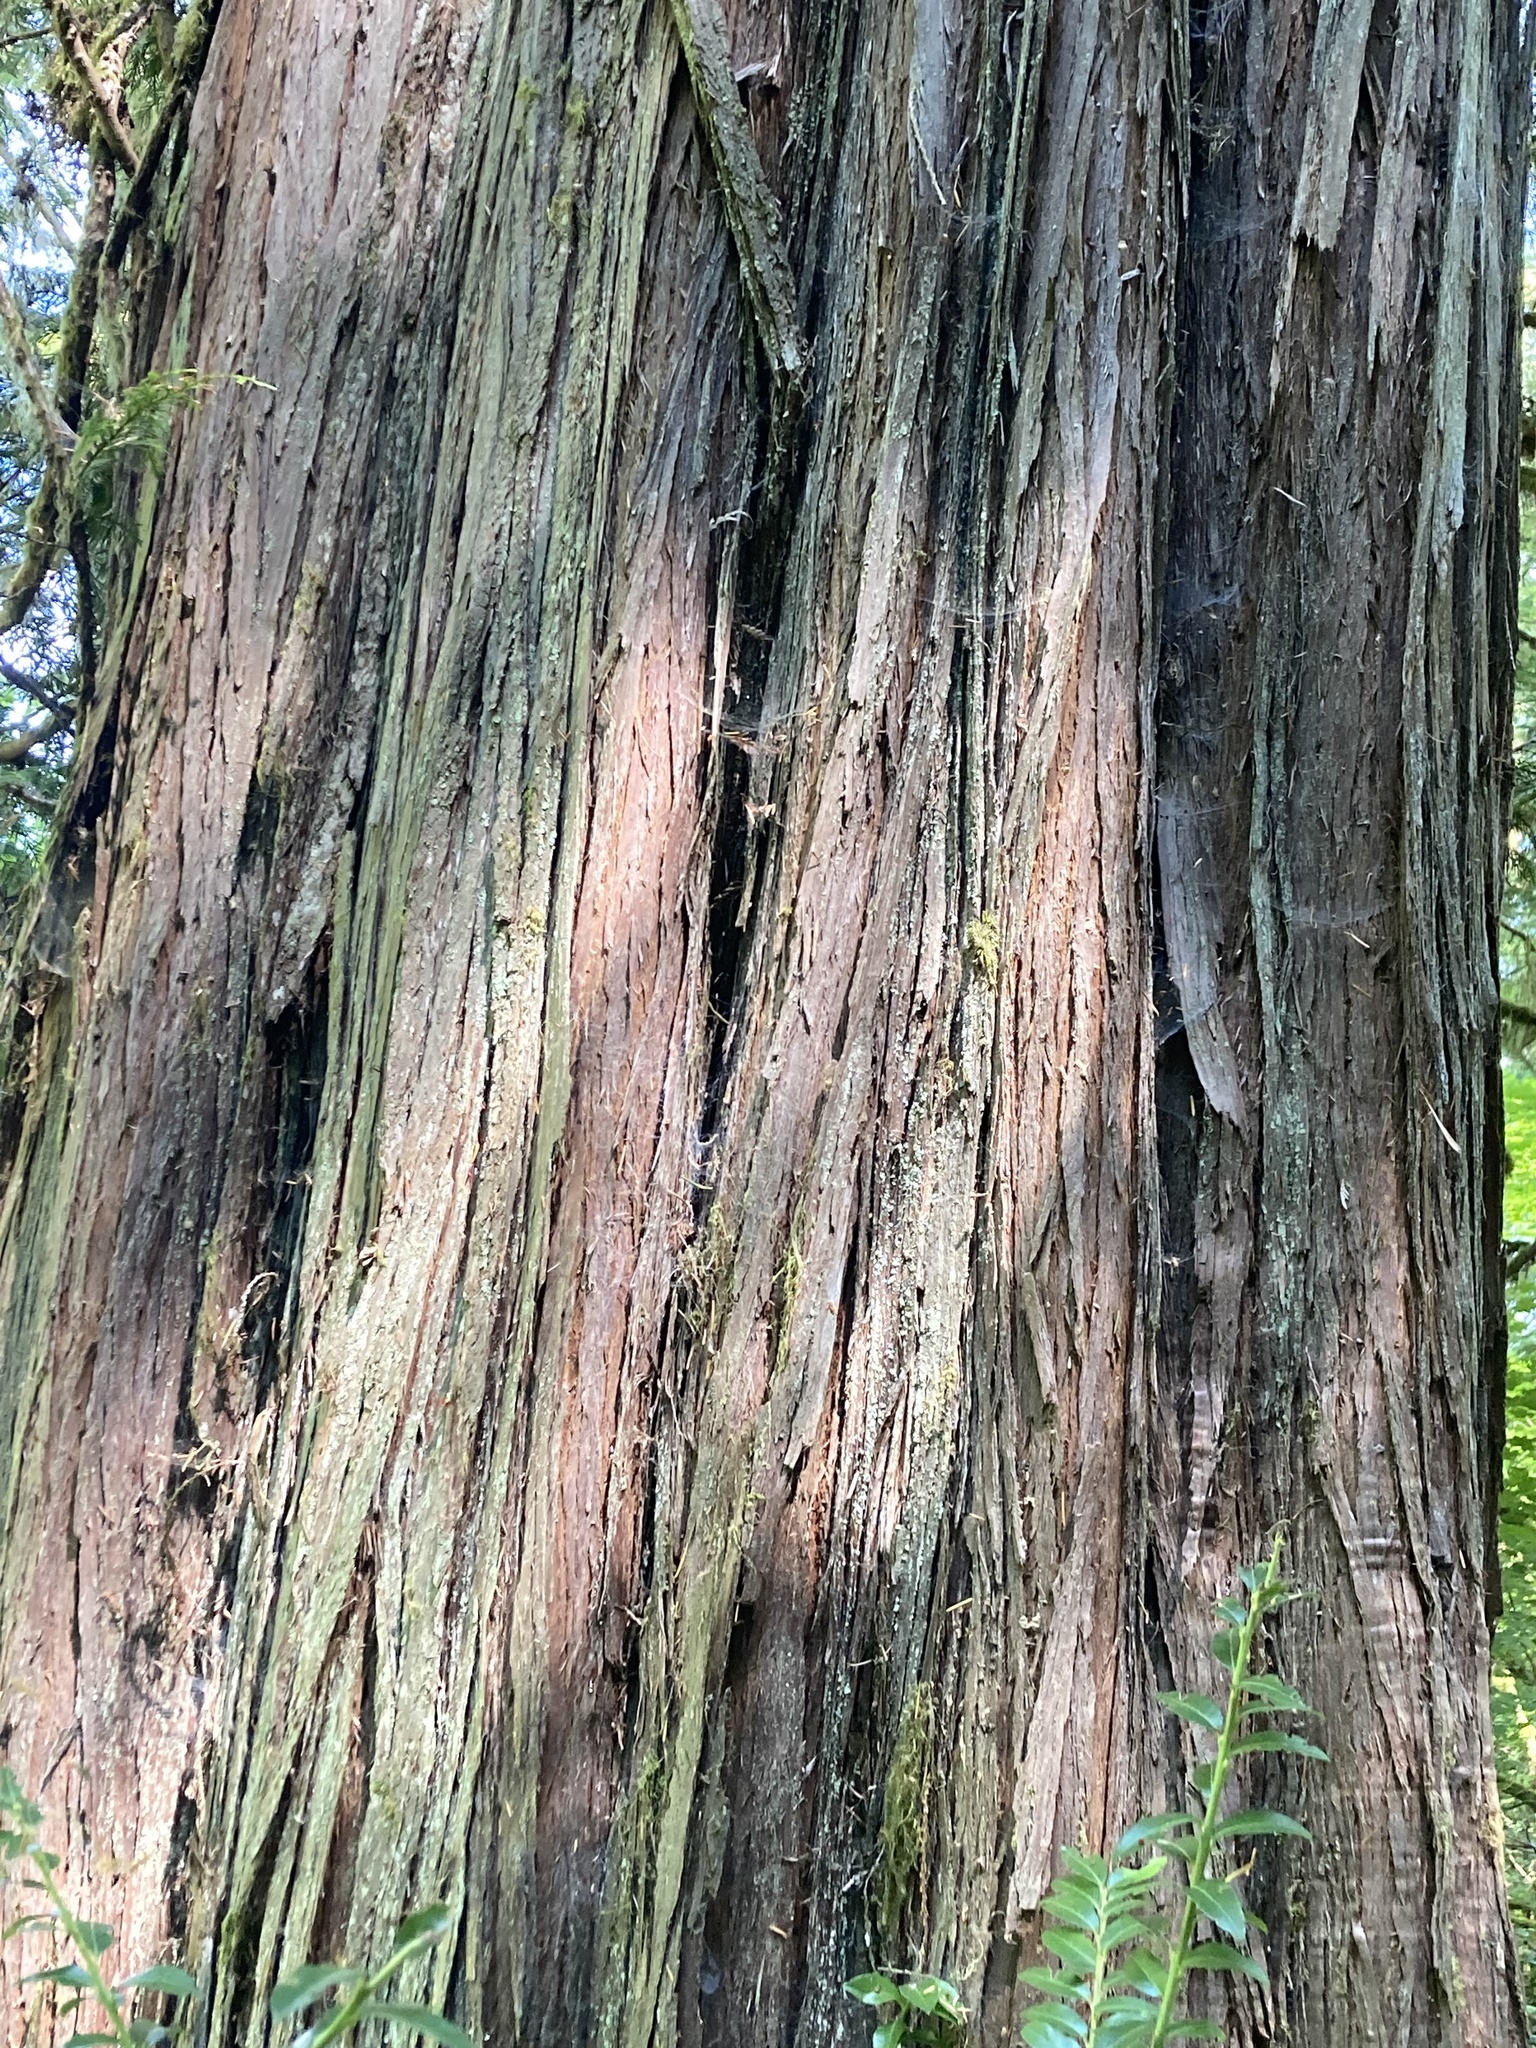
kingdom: Plantae
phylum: Tracheophyta
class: Pinopsida
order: Pinales
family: Cupressaceae
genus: Thuja
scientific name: Thuja plicata
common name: Western red-cedar
